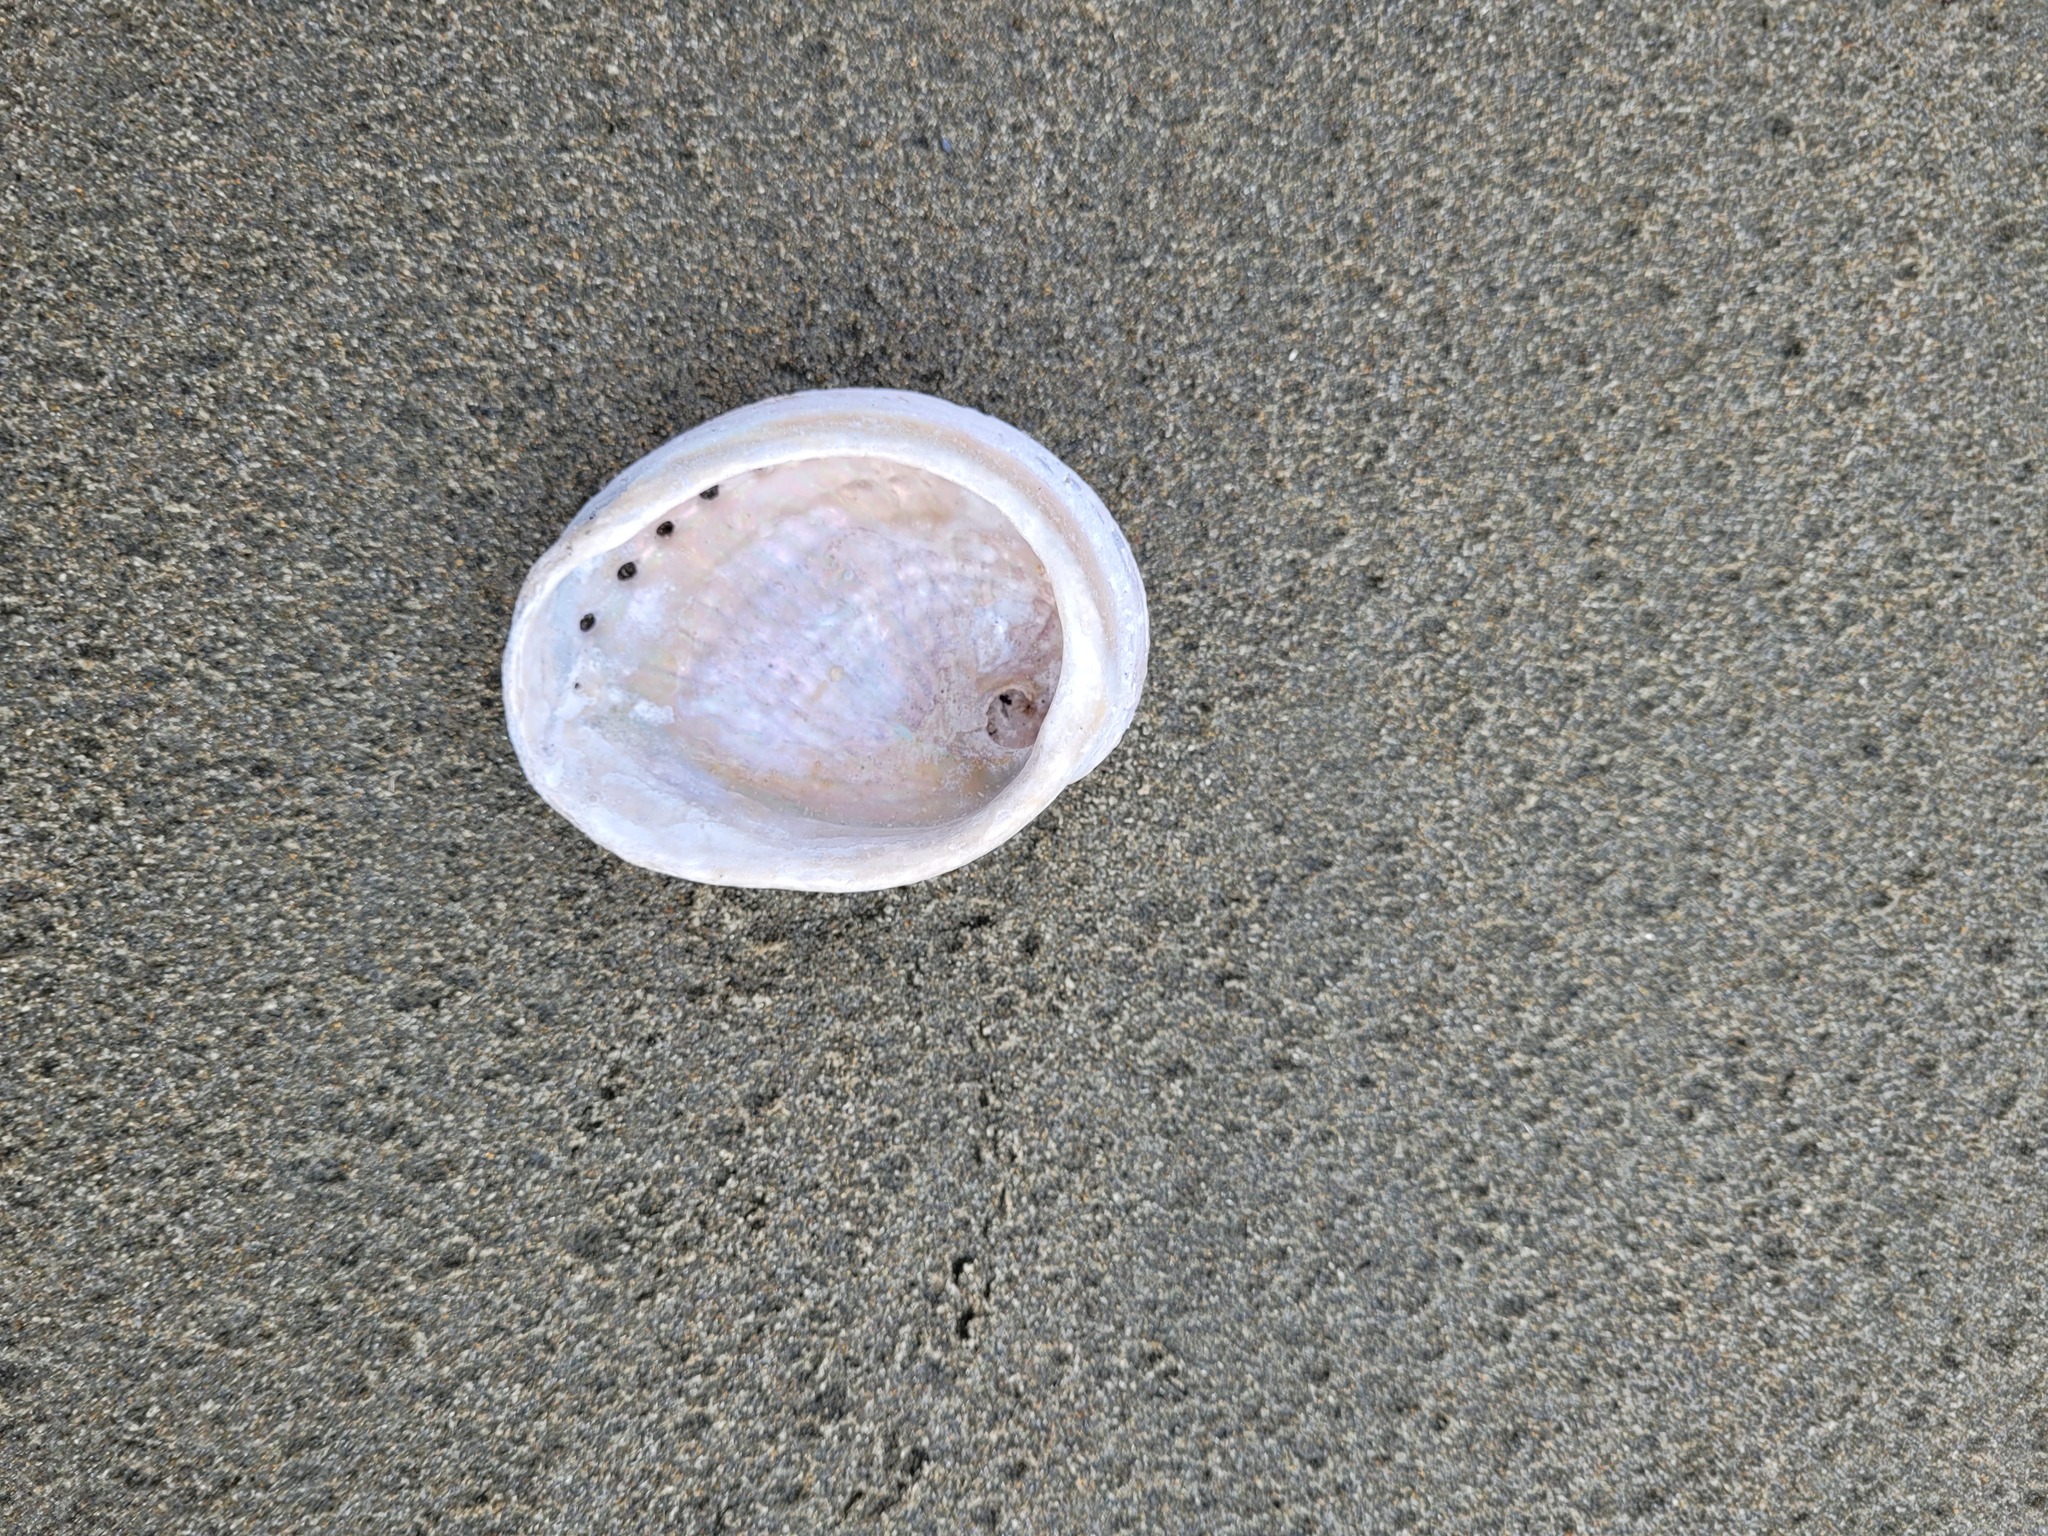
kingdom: Animalia
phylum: Mollusca
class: Gastropoda
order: Lepetellida
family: Haliotidae
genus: Haliotis
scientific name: Haliotis australis
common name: Silver abalone
